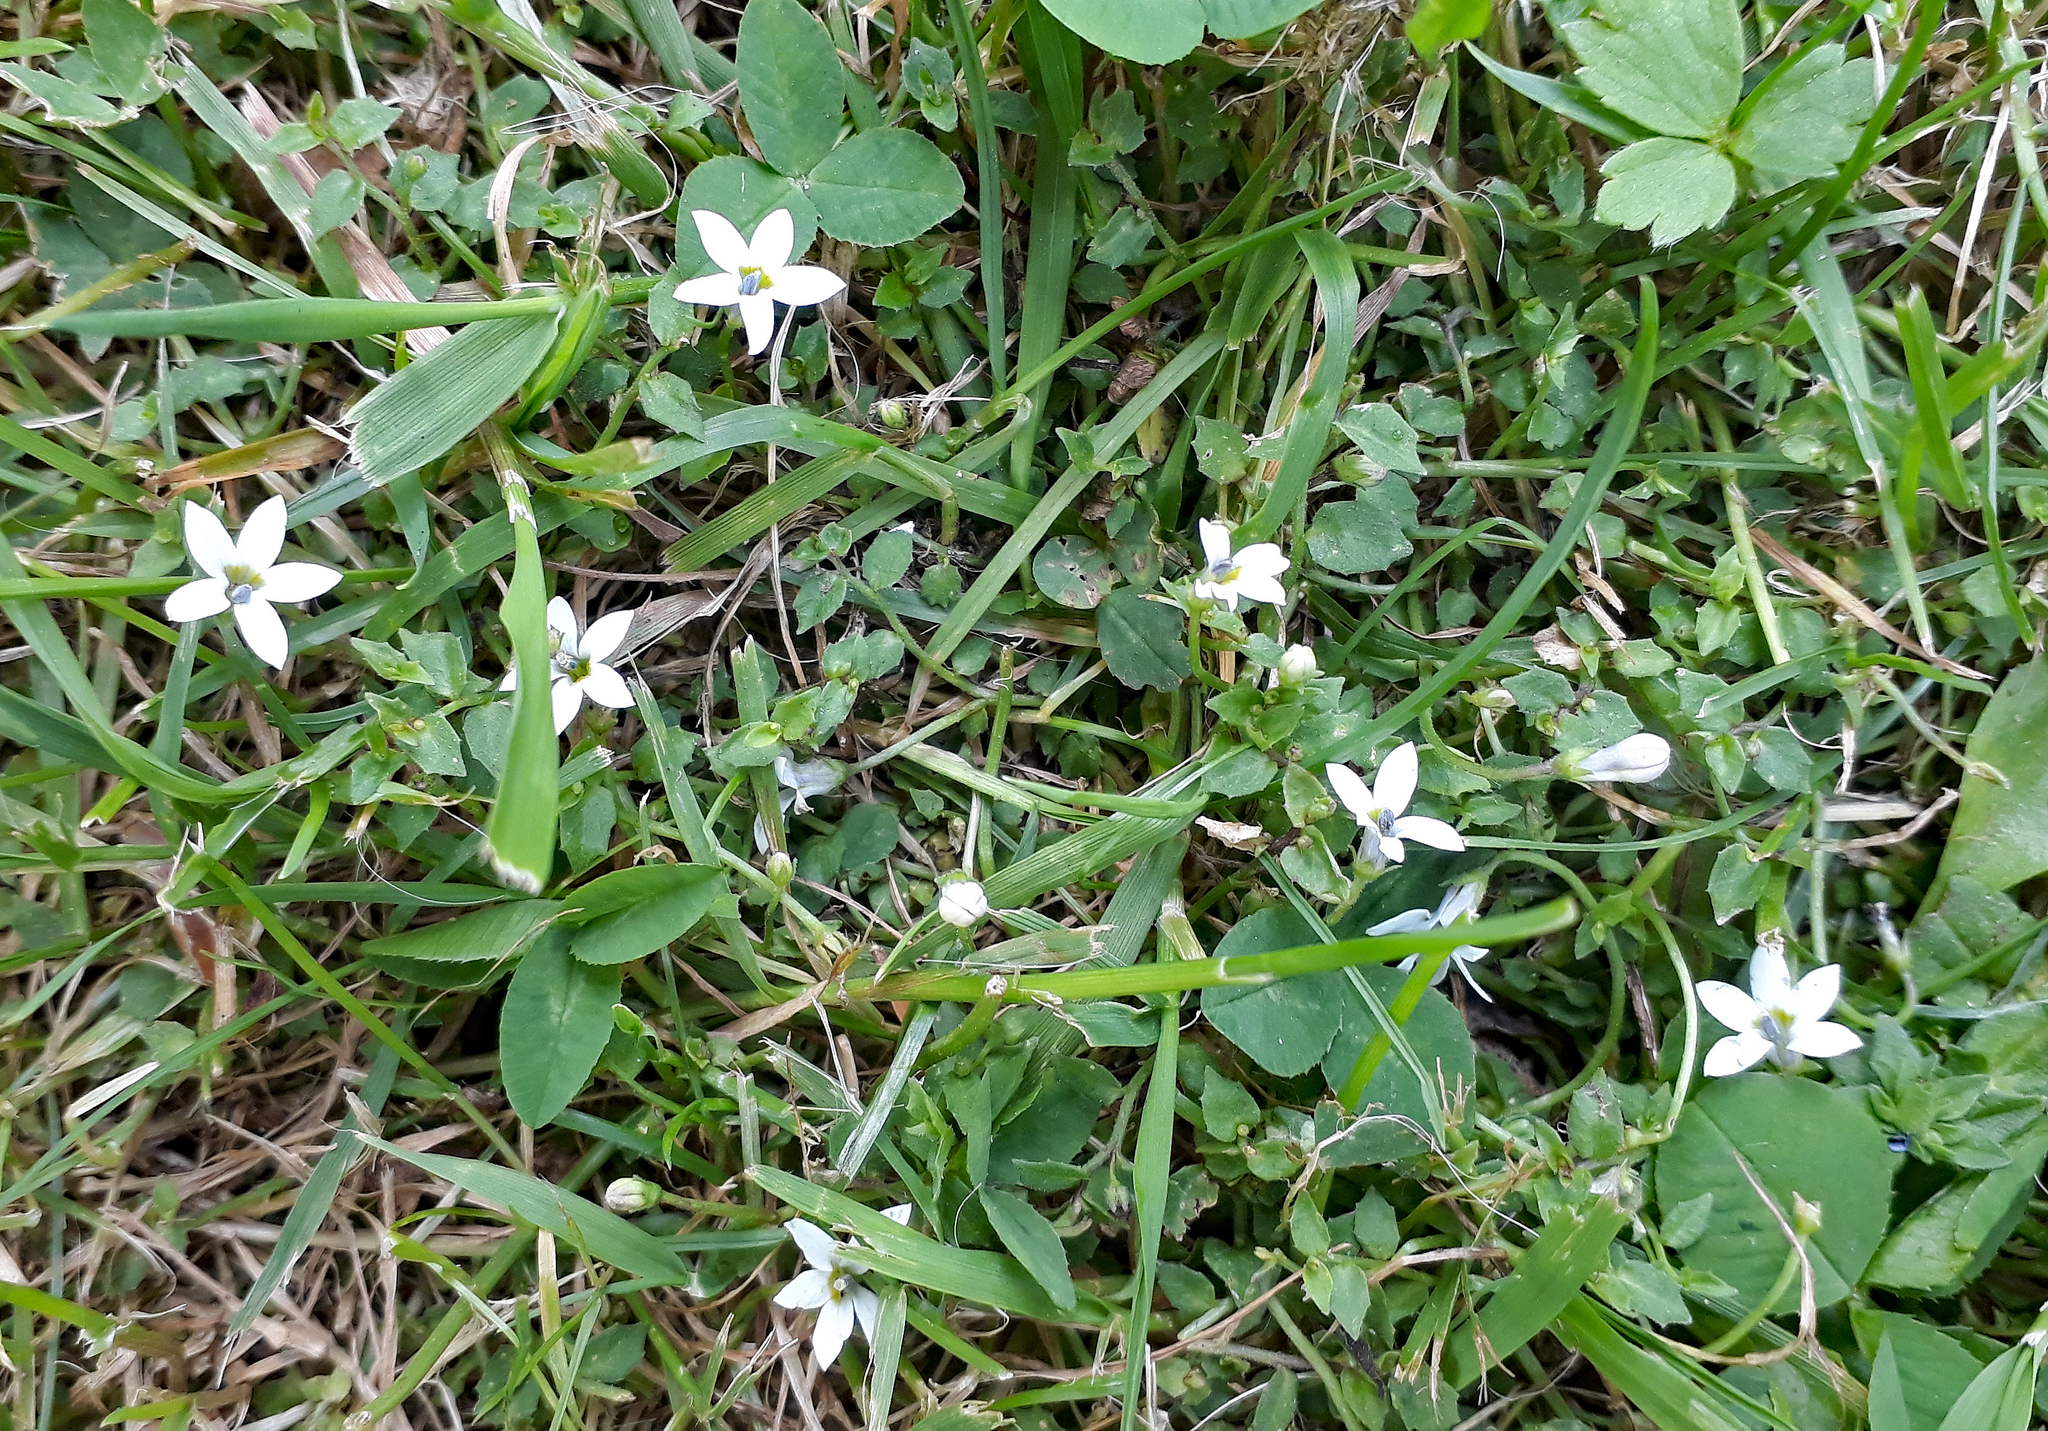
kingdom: Plantae
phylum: Tracheophyta
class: Magnoliopsida
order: Asterales
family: Campanulaceae
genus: Lobelia
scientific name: Lobelia pedunculata
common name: Matted pratia
